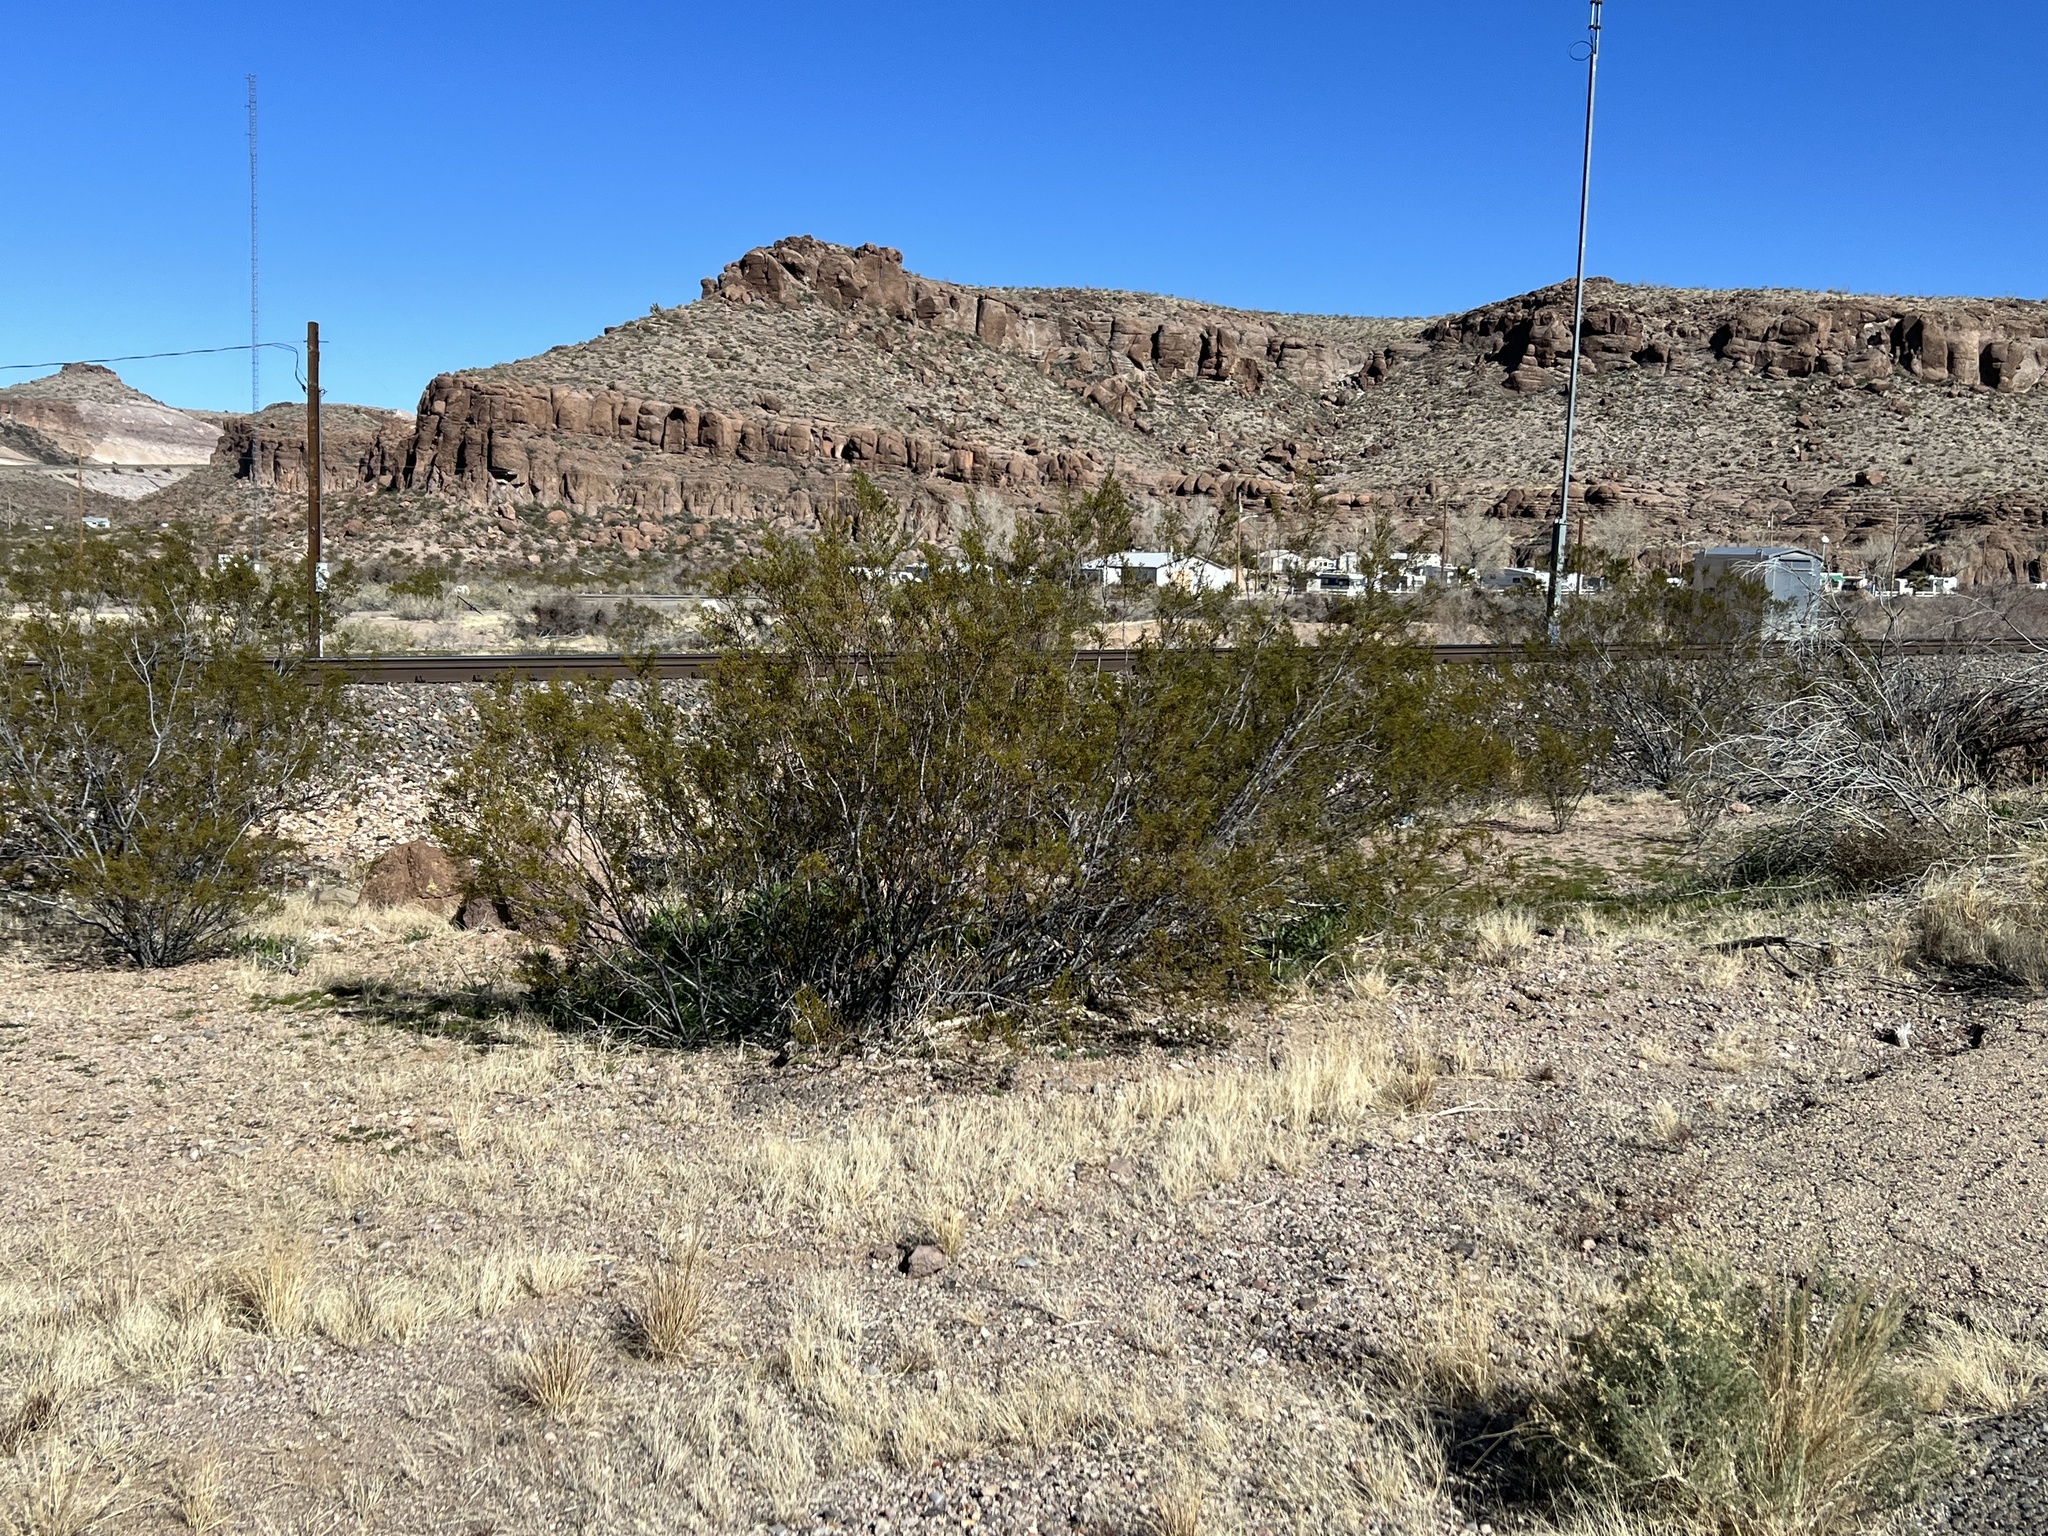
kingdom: Plantae
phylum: Tracheophyta
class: Magnoliopsida
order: Zygophyllales
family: Zygophyllaceae
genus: Larrea
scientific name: Larrea tridentata
